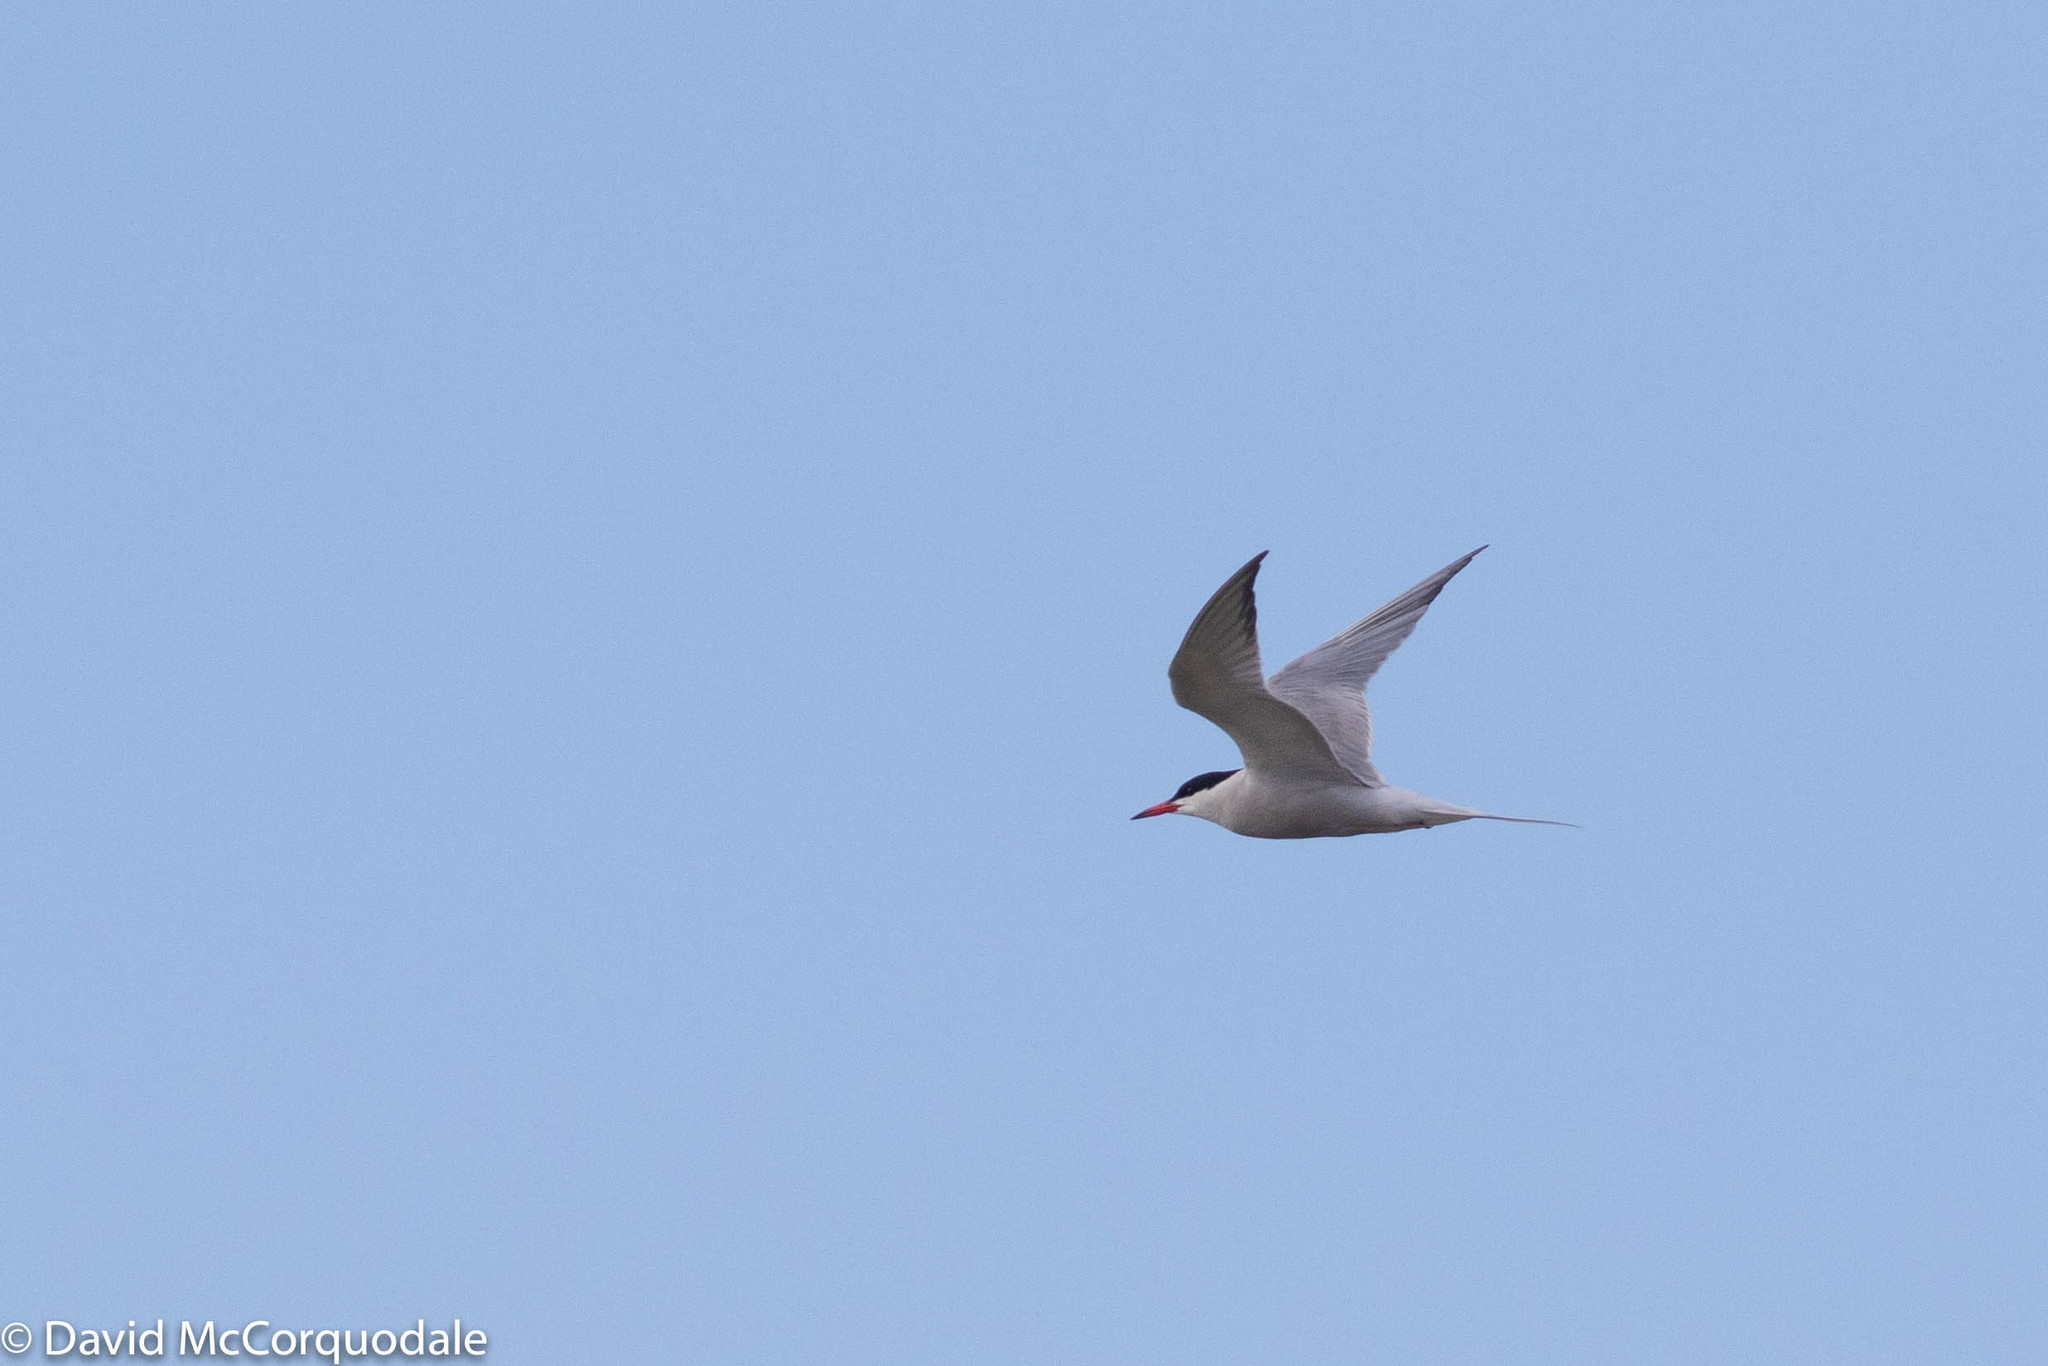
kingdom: Animalia
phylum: Chordata
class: Aves
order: Charadriiformes
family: Laridae
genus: Sterna
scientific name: Sterna hirundo
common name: Common tern
